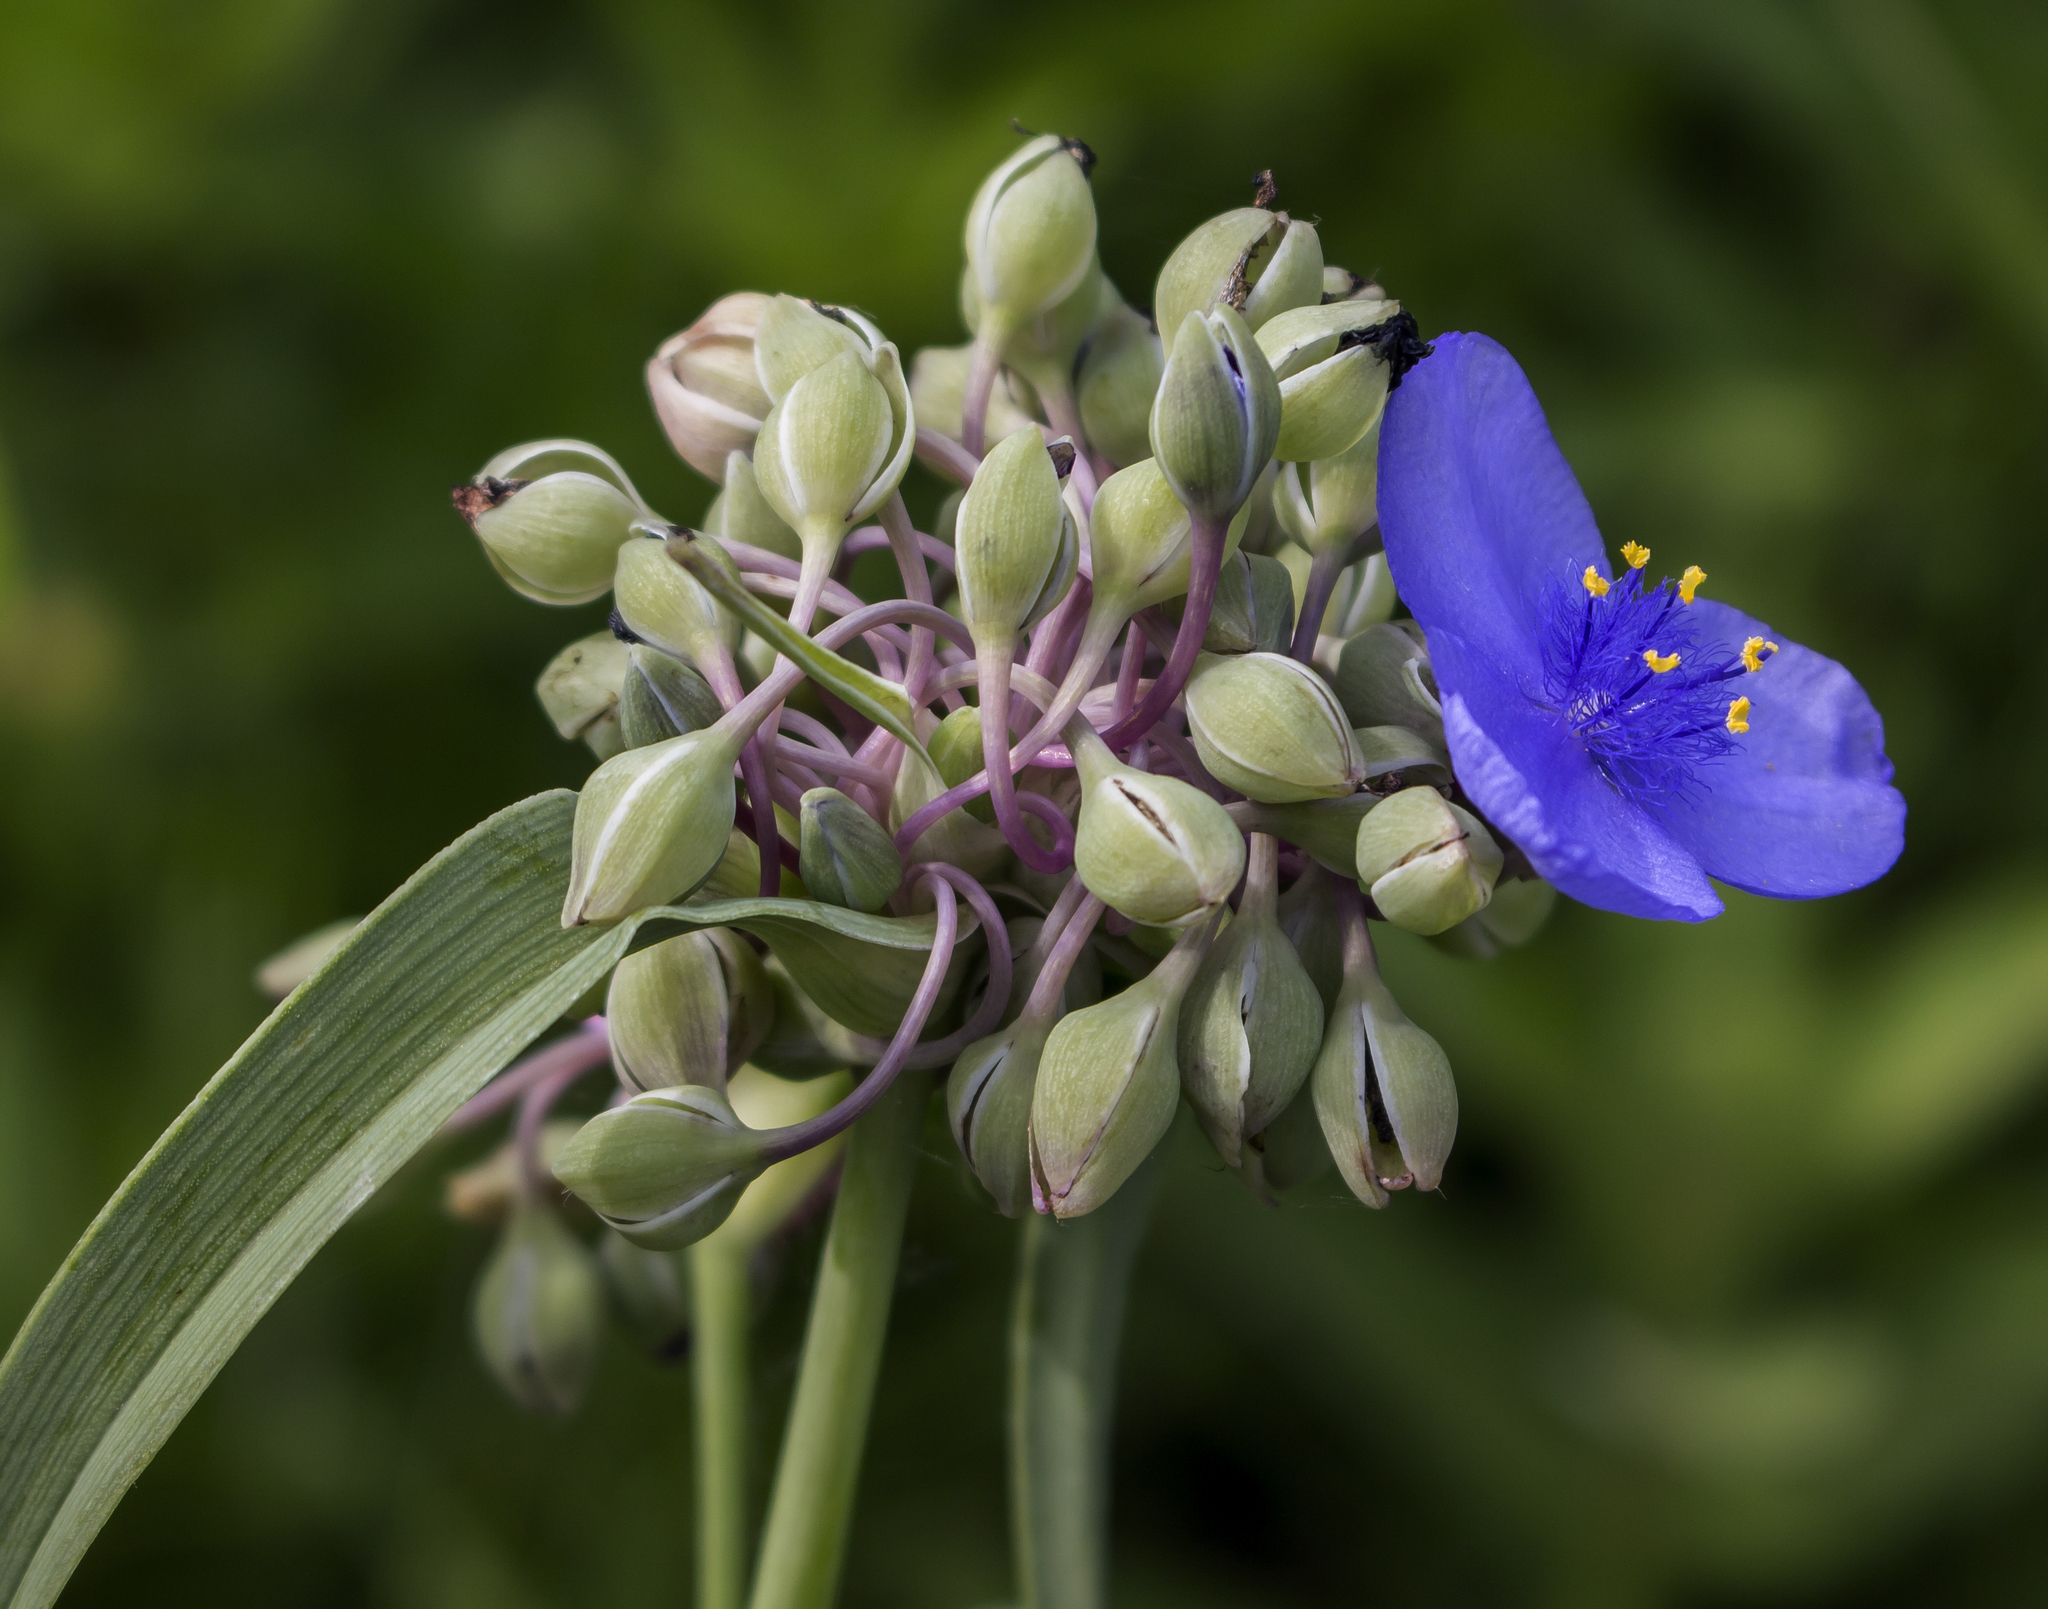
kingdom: Plantae
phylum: Tracheophyta
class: Liliopsida
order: Commelinales
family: Commelinaceae
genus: Tradescantia
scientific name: Tradescantia ohiensis
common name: Ohio spiderwort
